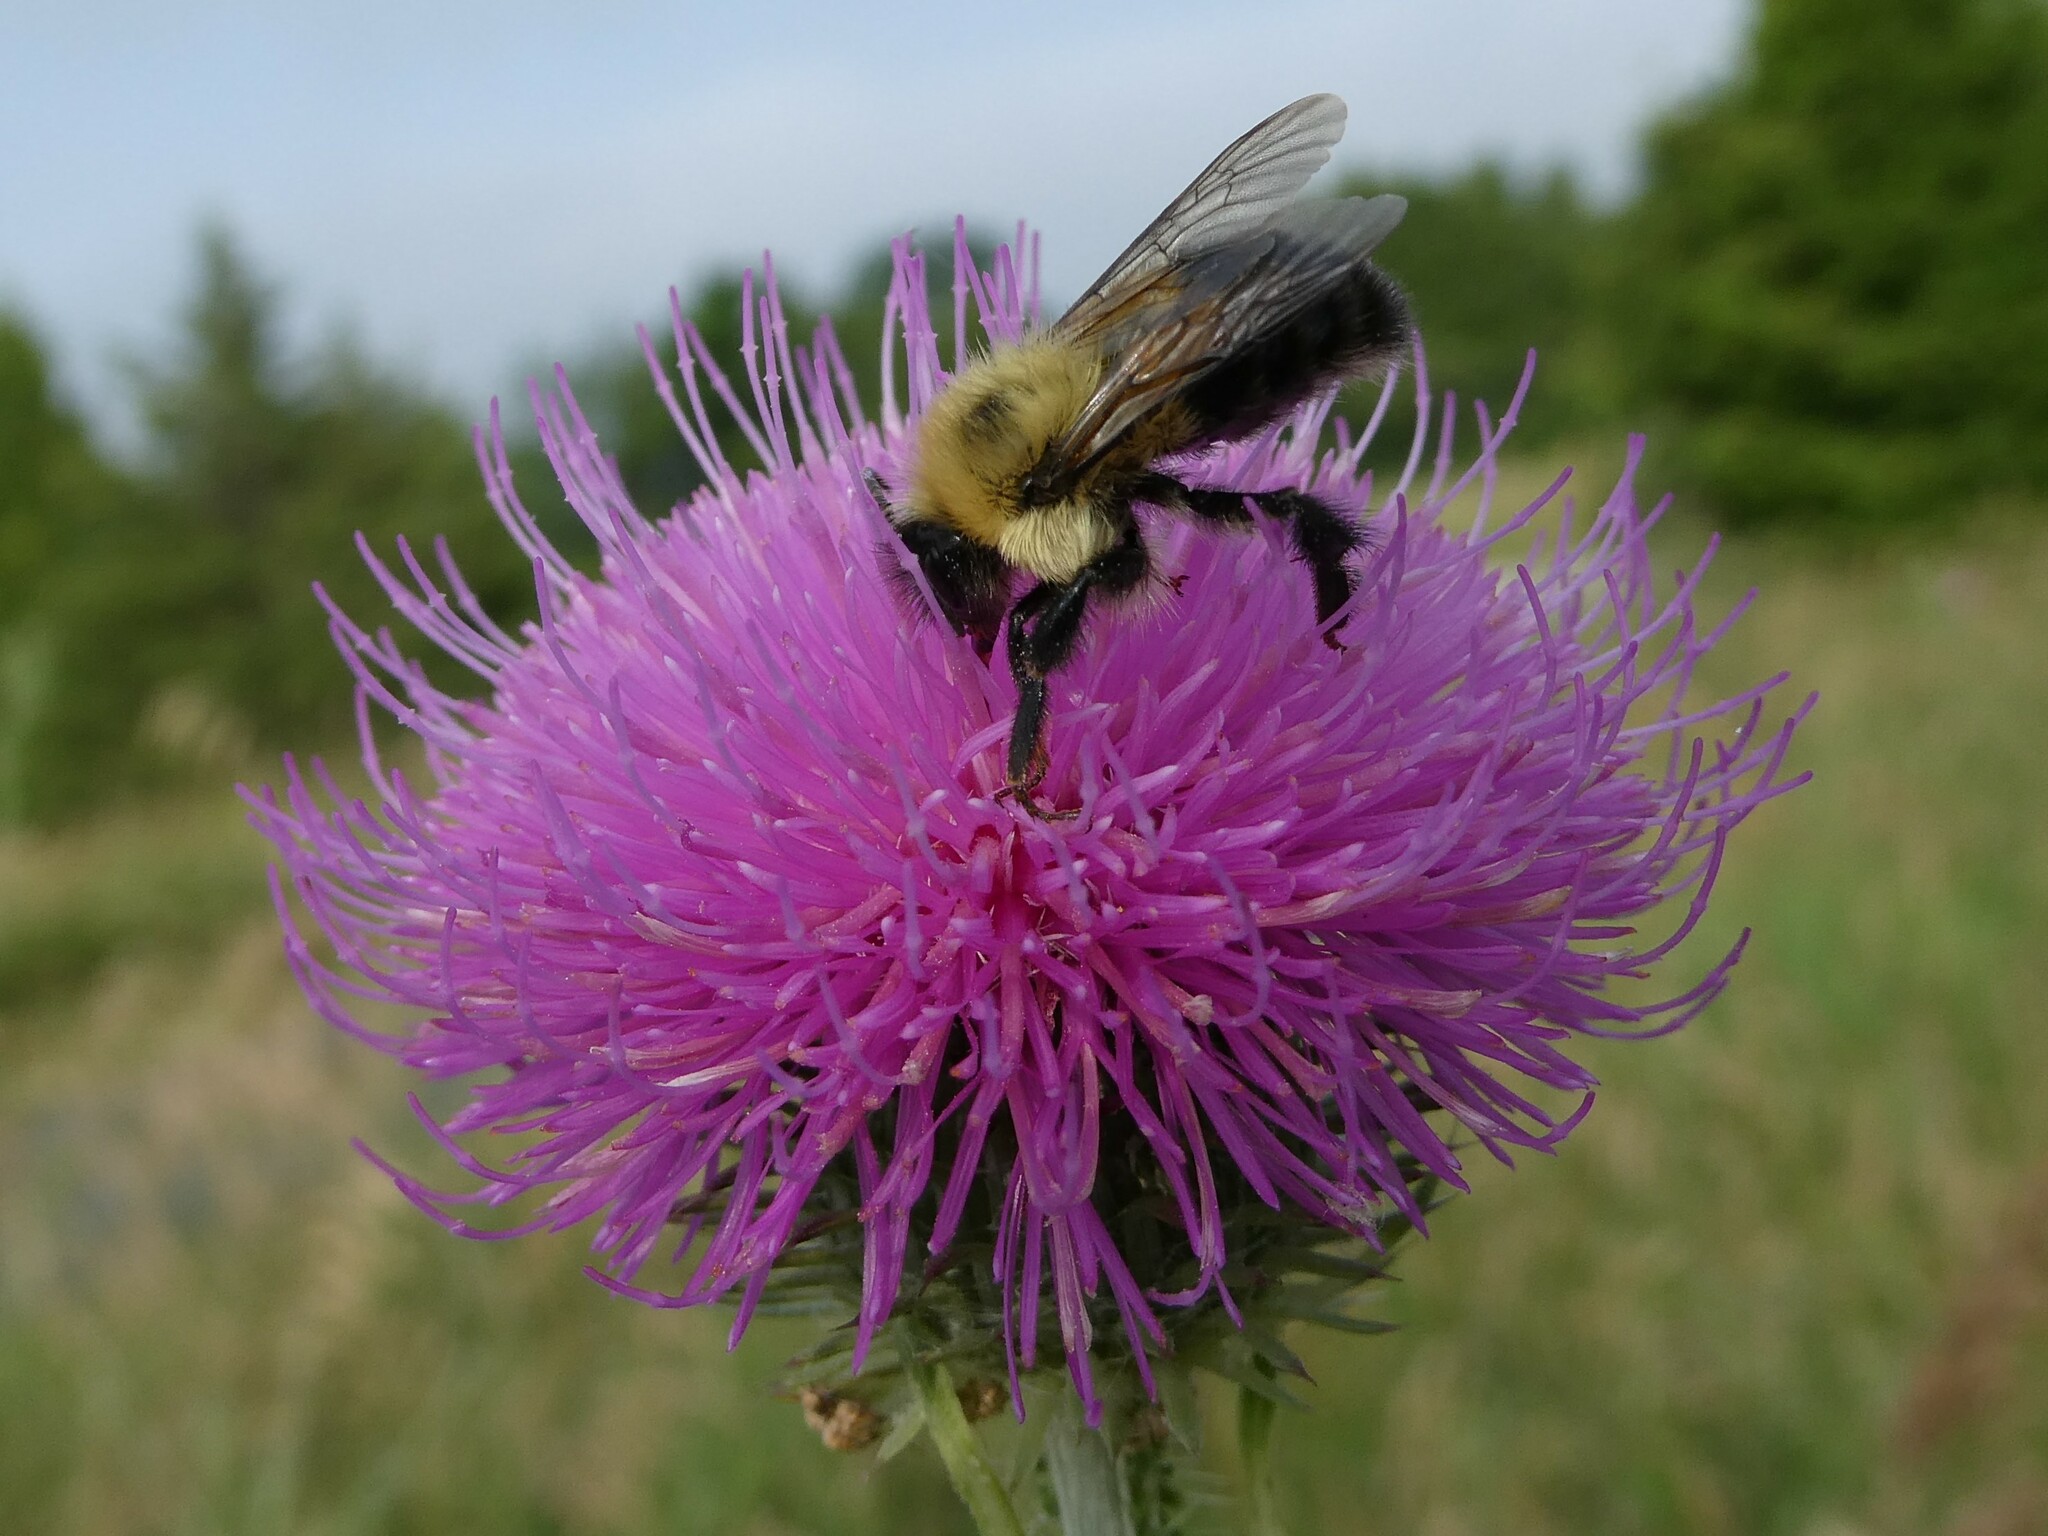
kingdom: Animalia
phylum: Arthropoda
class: Insecta
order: Hymenoptera
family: Apidae
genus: Bombus
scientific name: Bombus bimaculatus
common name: Two-spotted bumble bee
